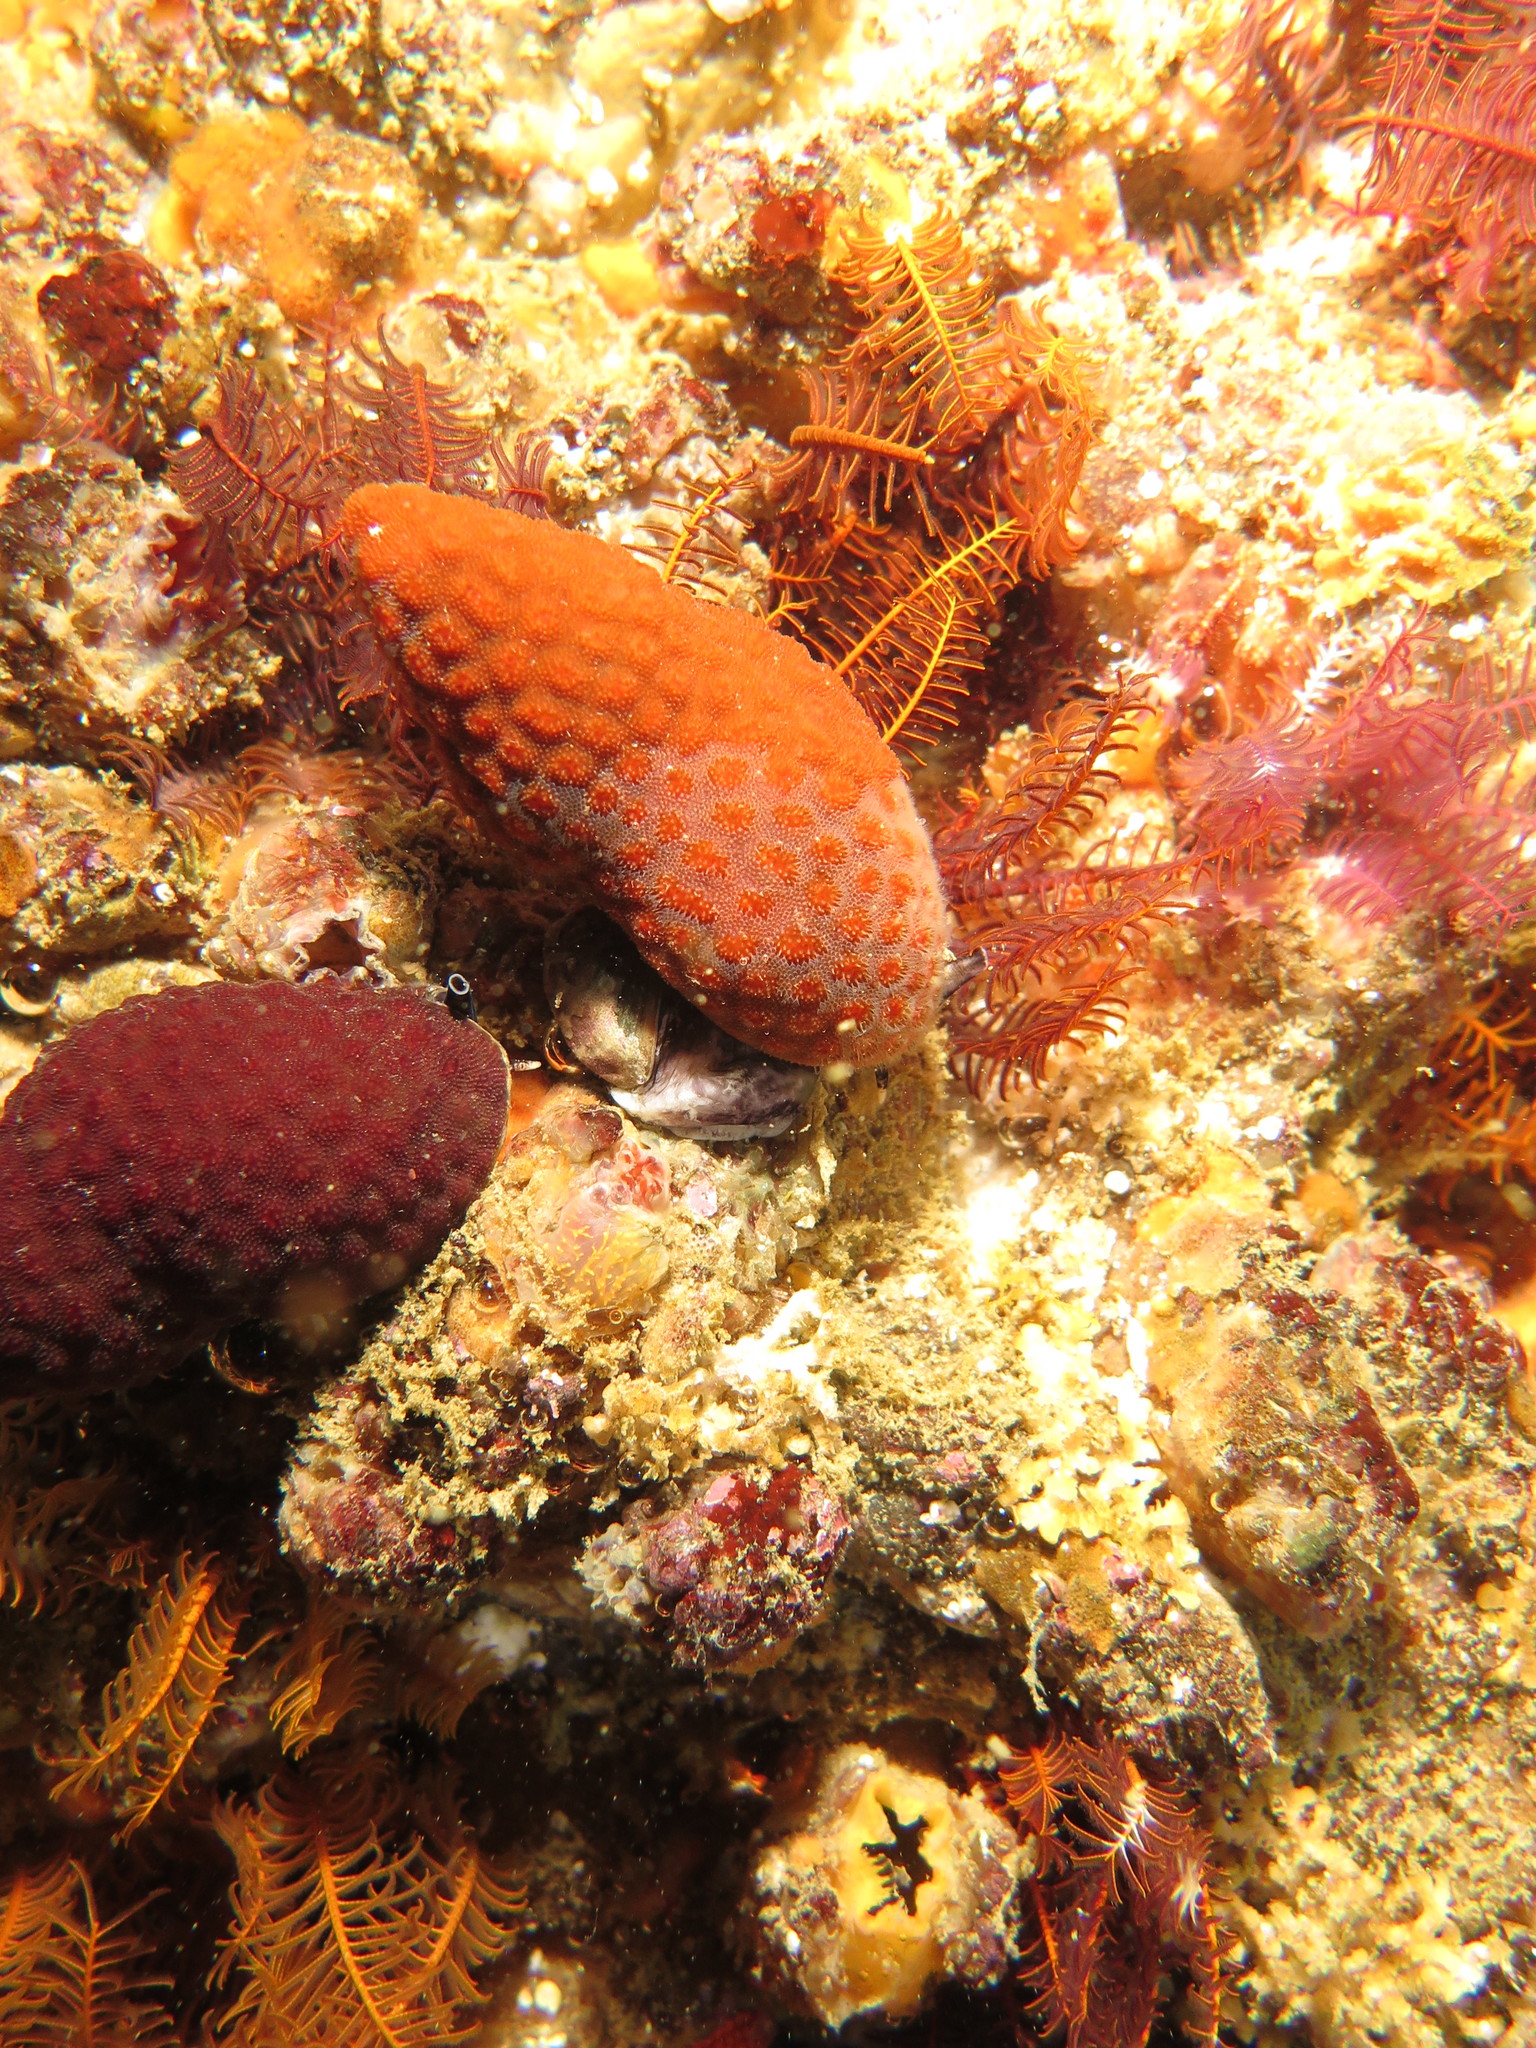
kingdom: Animalia
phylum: Mollusca
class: Gastropoda
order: Neogastropoda
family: Buccinidae
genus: Burnupena
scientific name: Burnupena papyracea
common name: Papery burnupena
